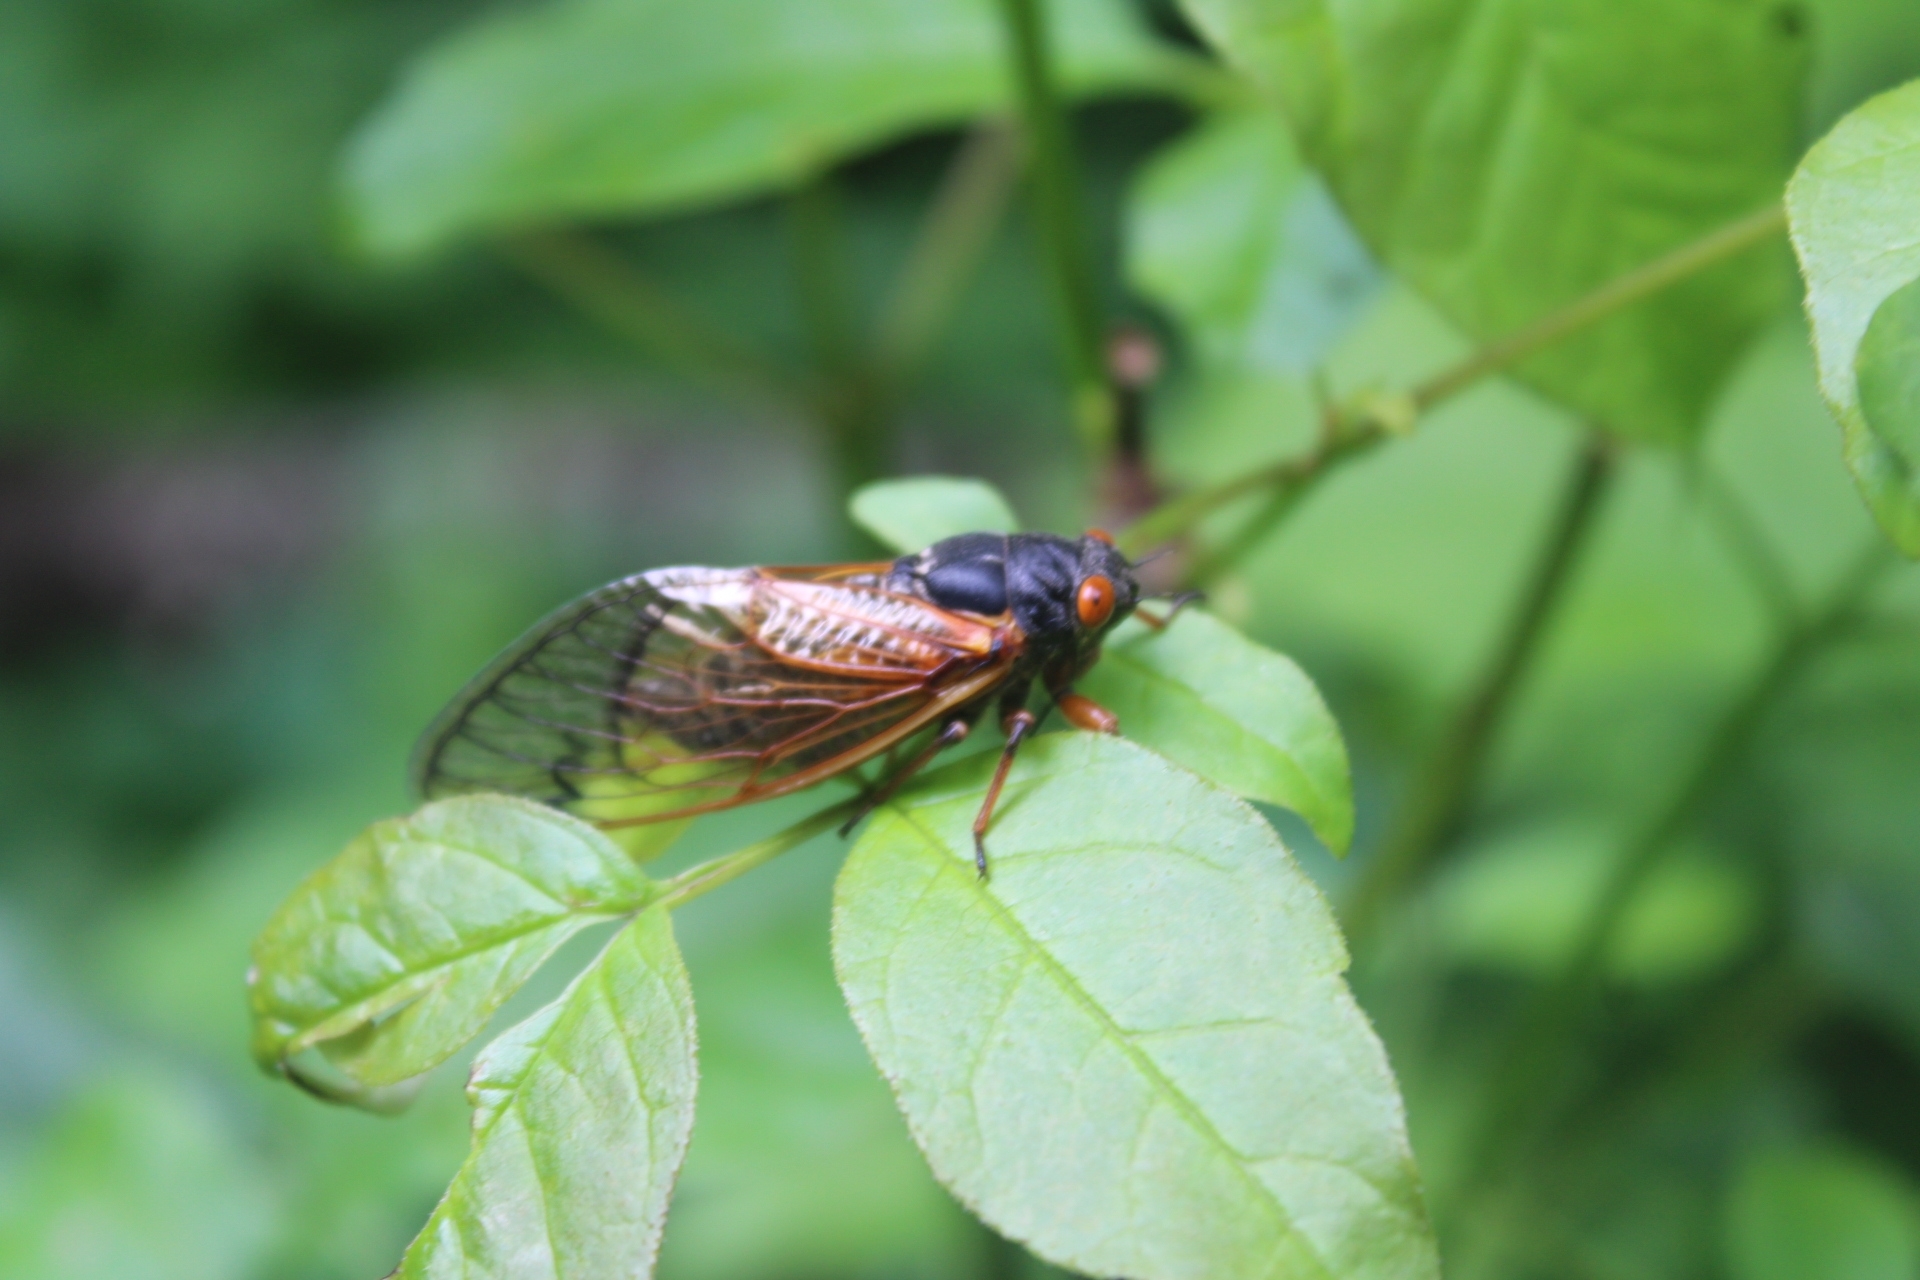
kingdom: Animalia
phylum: Arthropoda
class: Insecta
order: Hemiptera
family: Cicadidae
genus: Magicicada
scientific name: Magicicada
